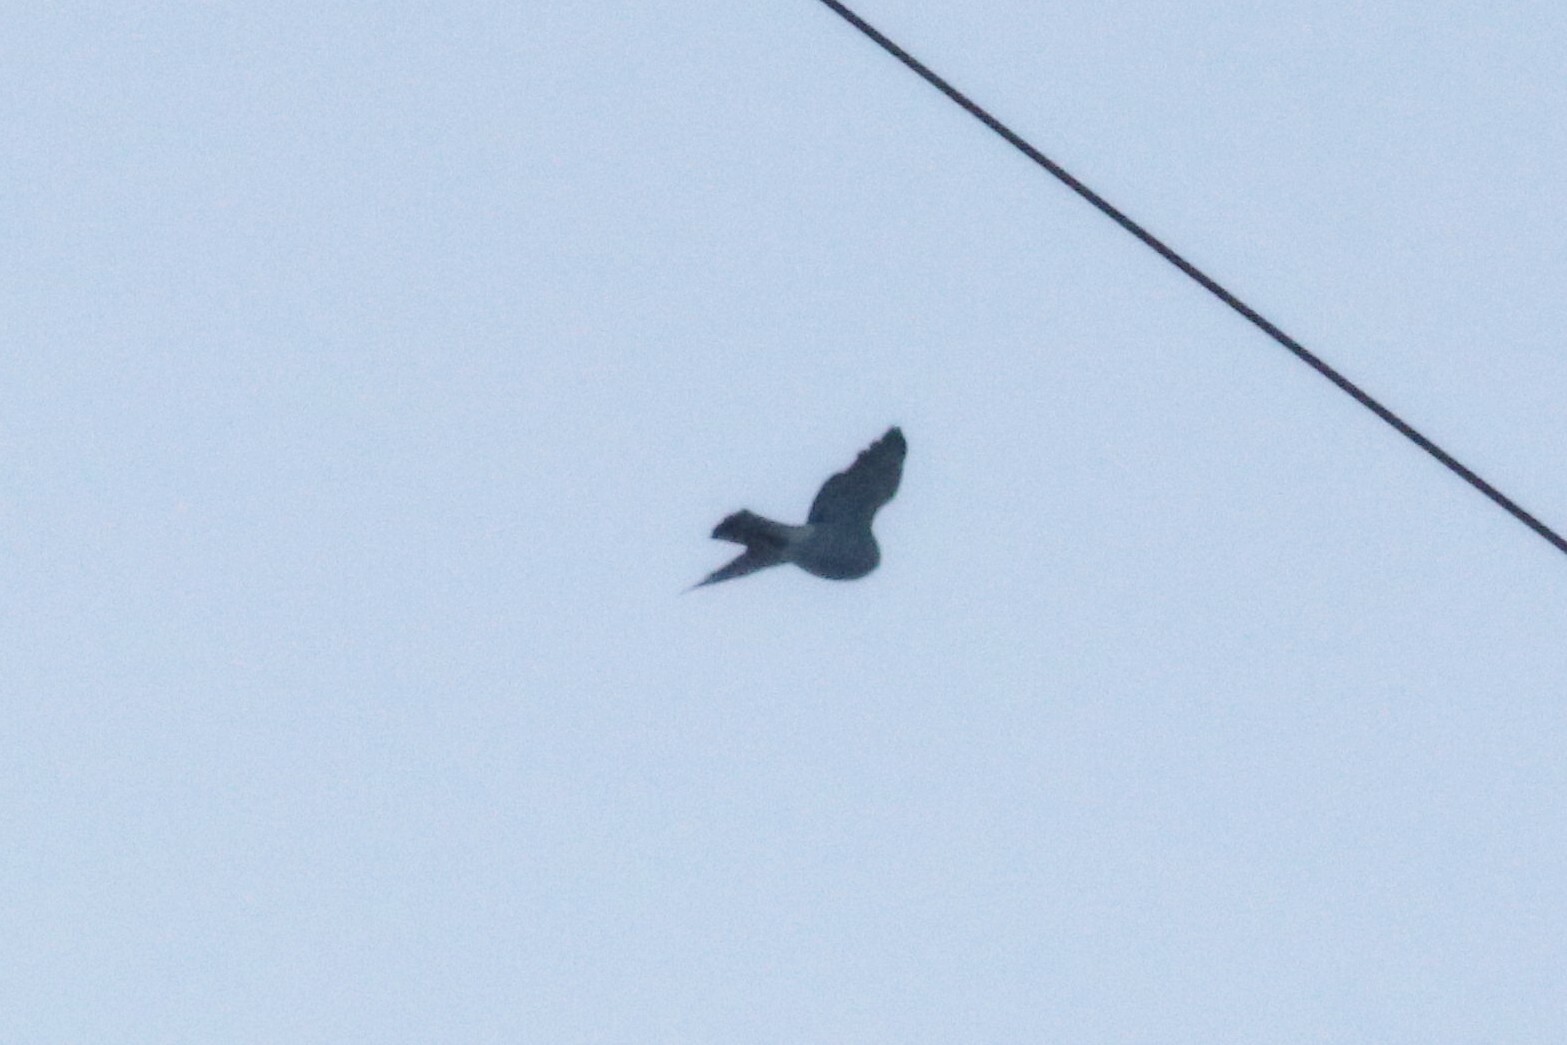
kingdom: Animalia
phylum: Chordata
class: Aves
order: Accipitriformes
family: Accipitridae
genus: Accipiter
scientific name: Accipiter nisus
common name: Eurasian sparrowhawk
